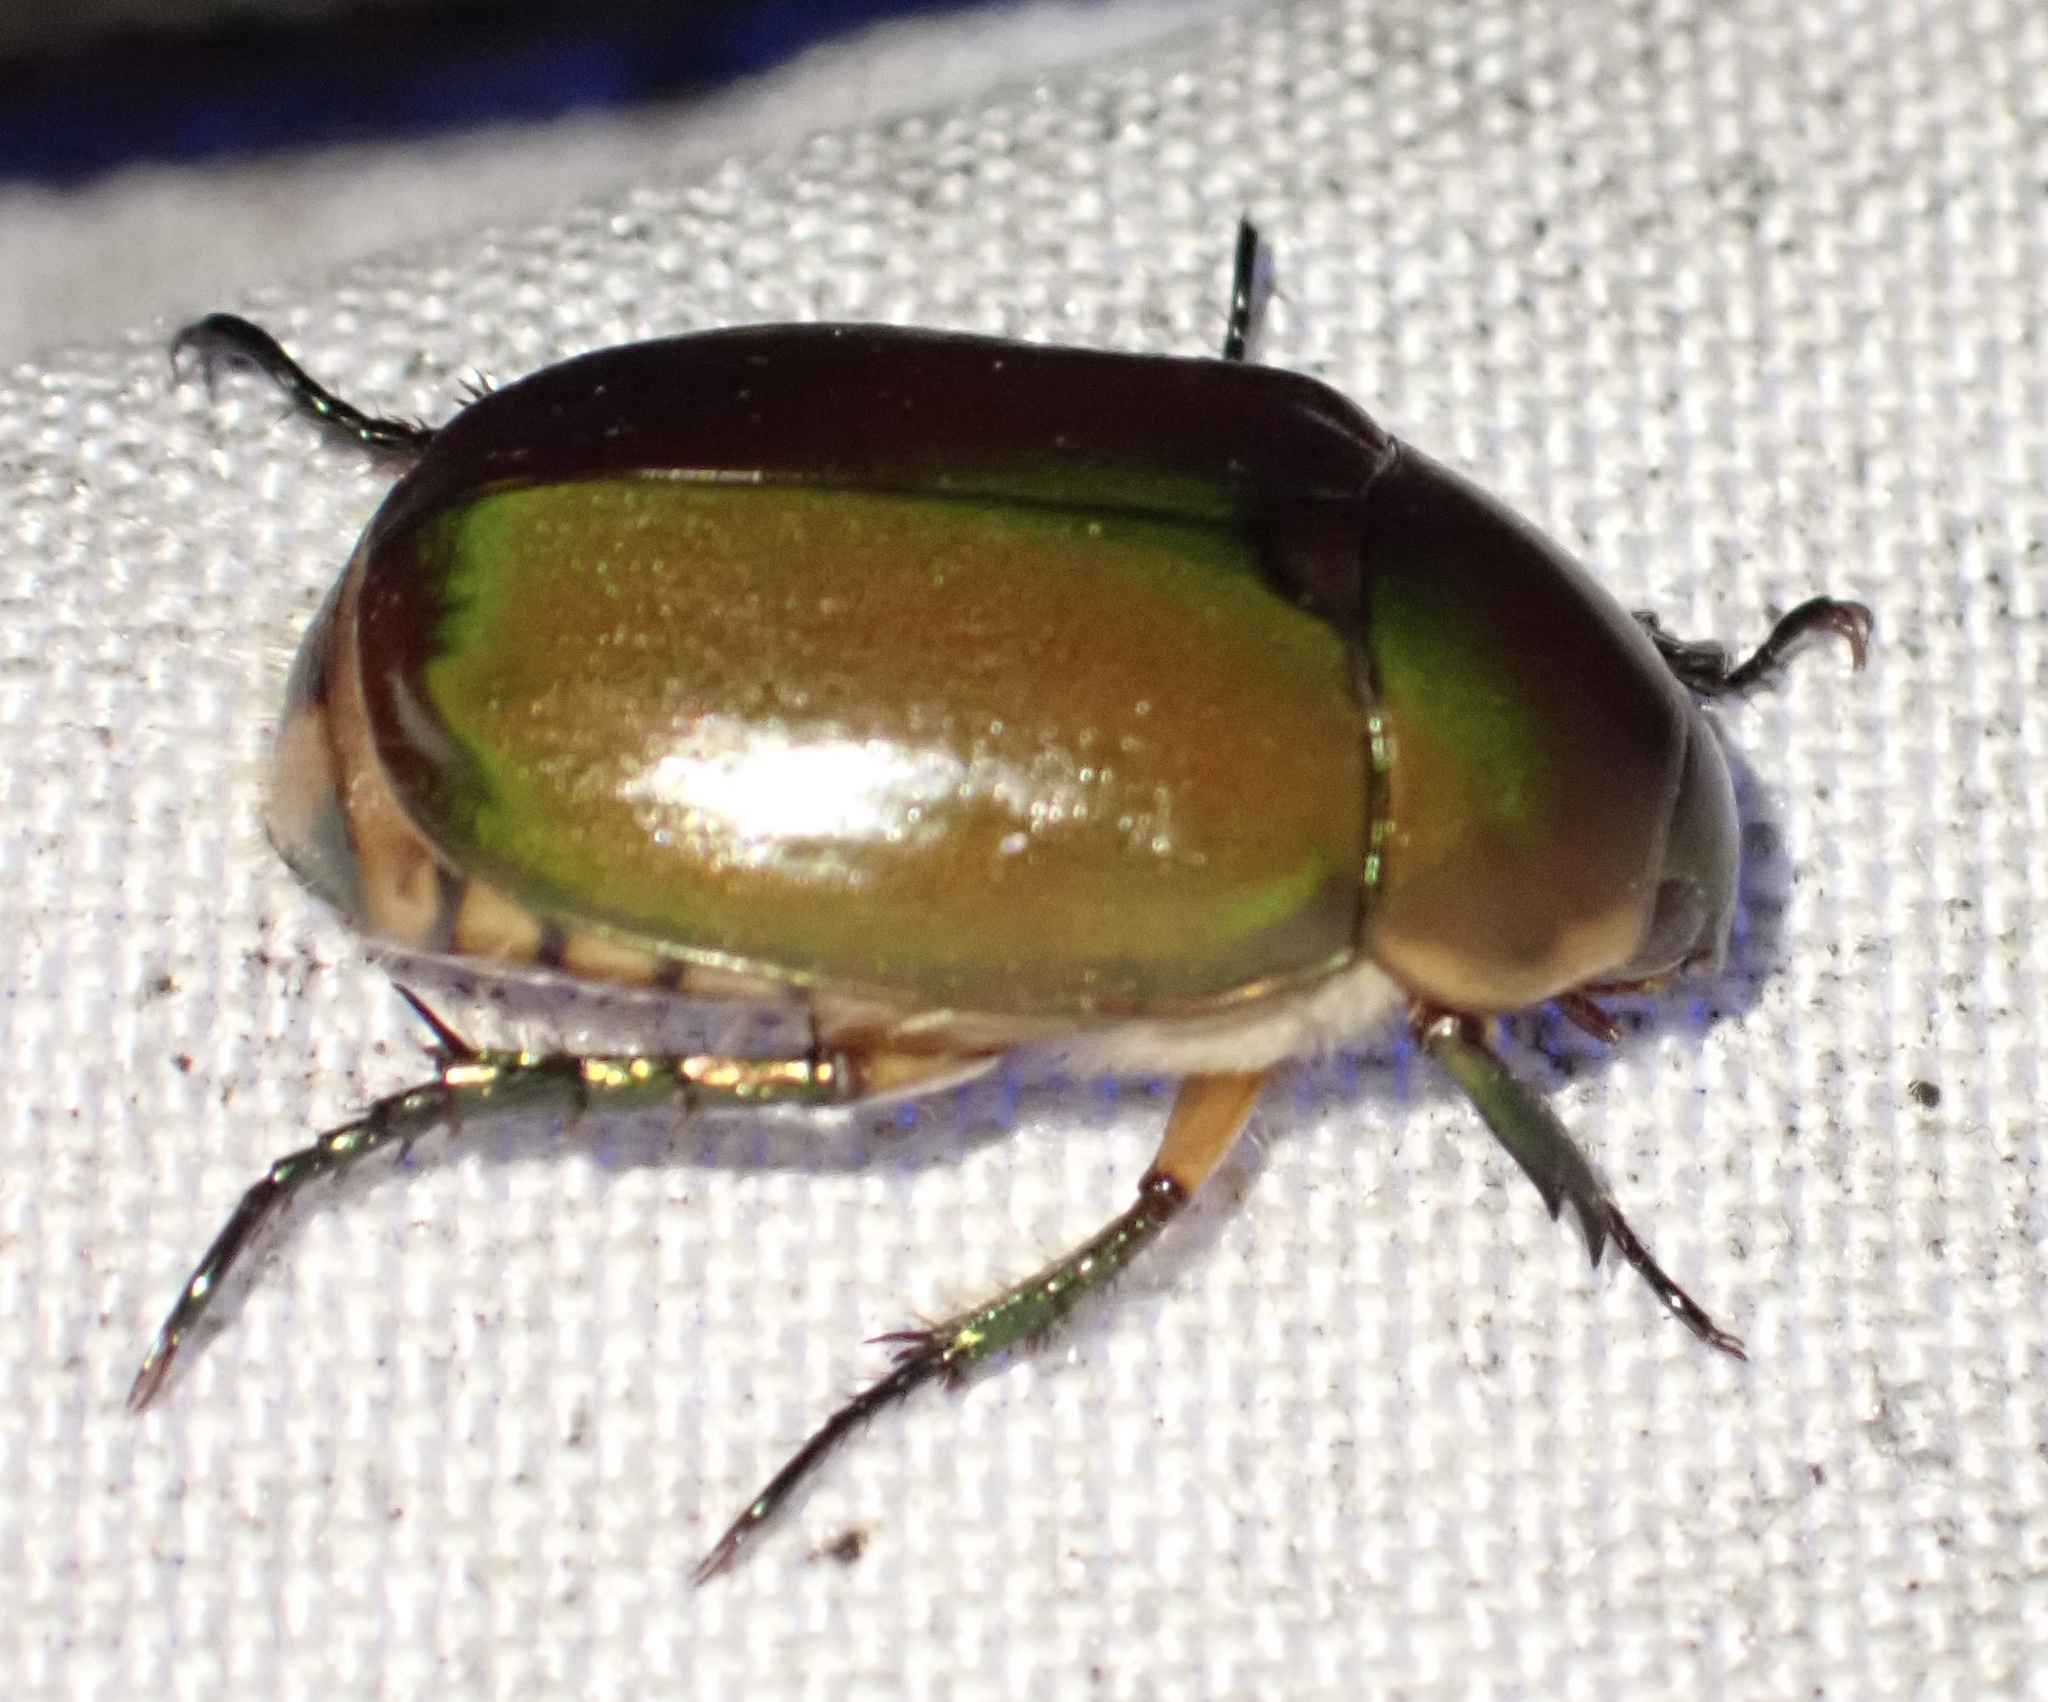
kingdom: Animalia
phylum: Arthropoda
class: Insecta
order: Coleoptera
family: Scarabaeidae
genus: Anomala
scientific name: Anomala anoguttata
